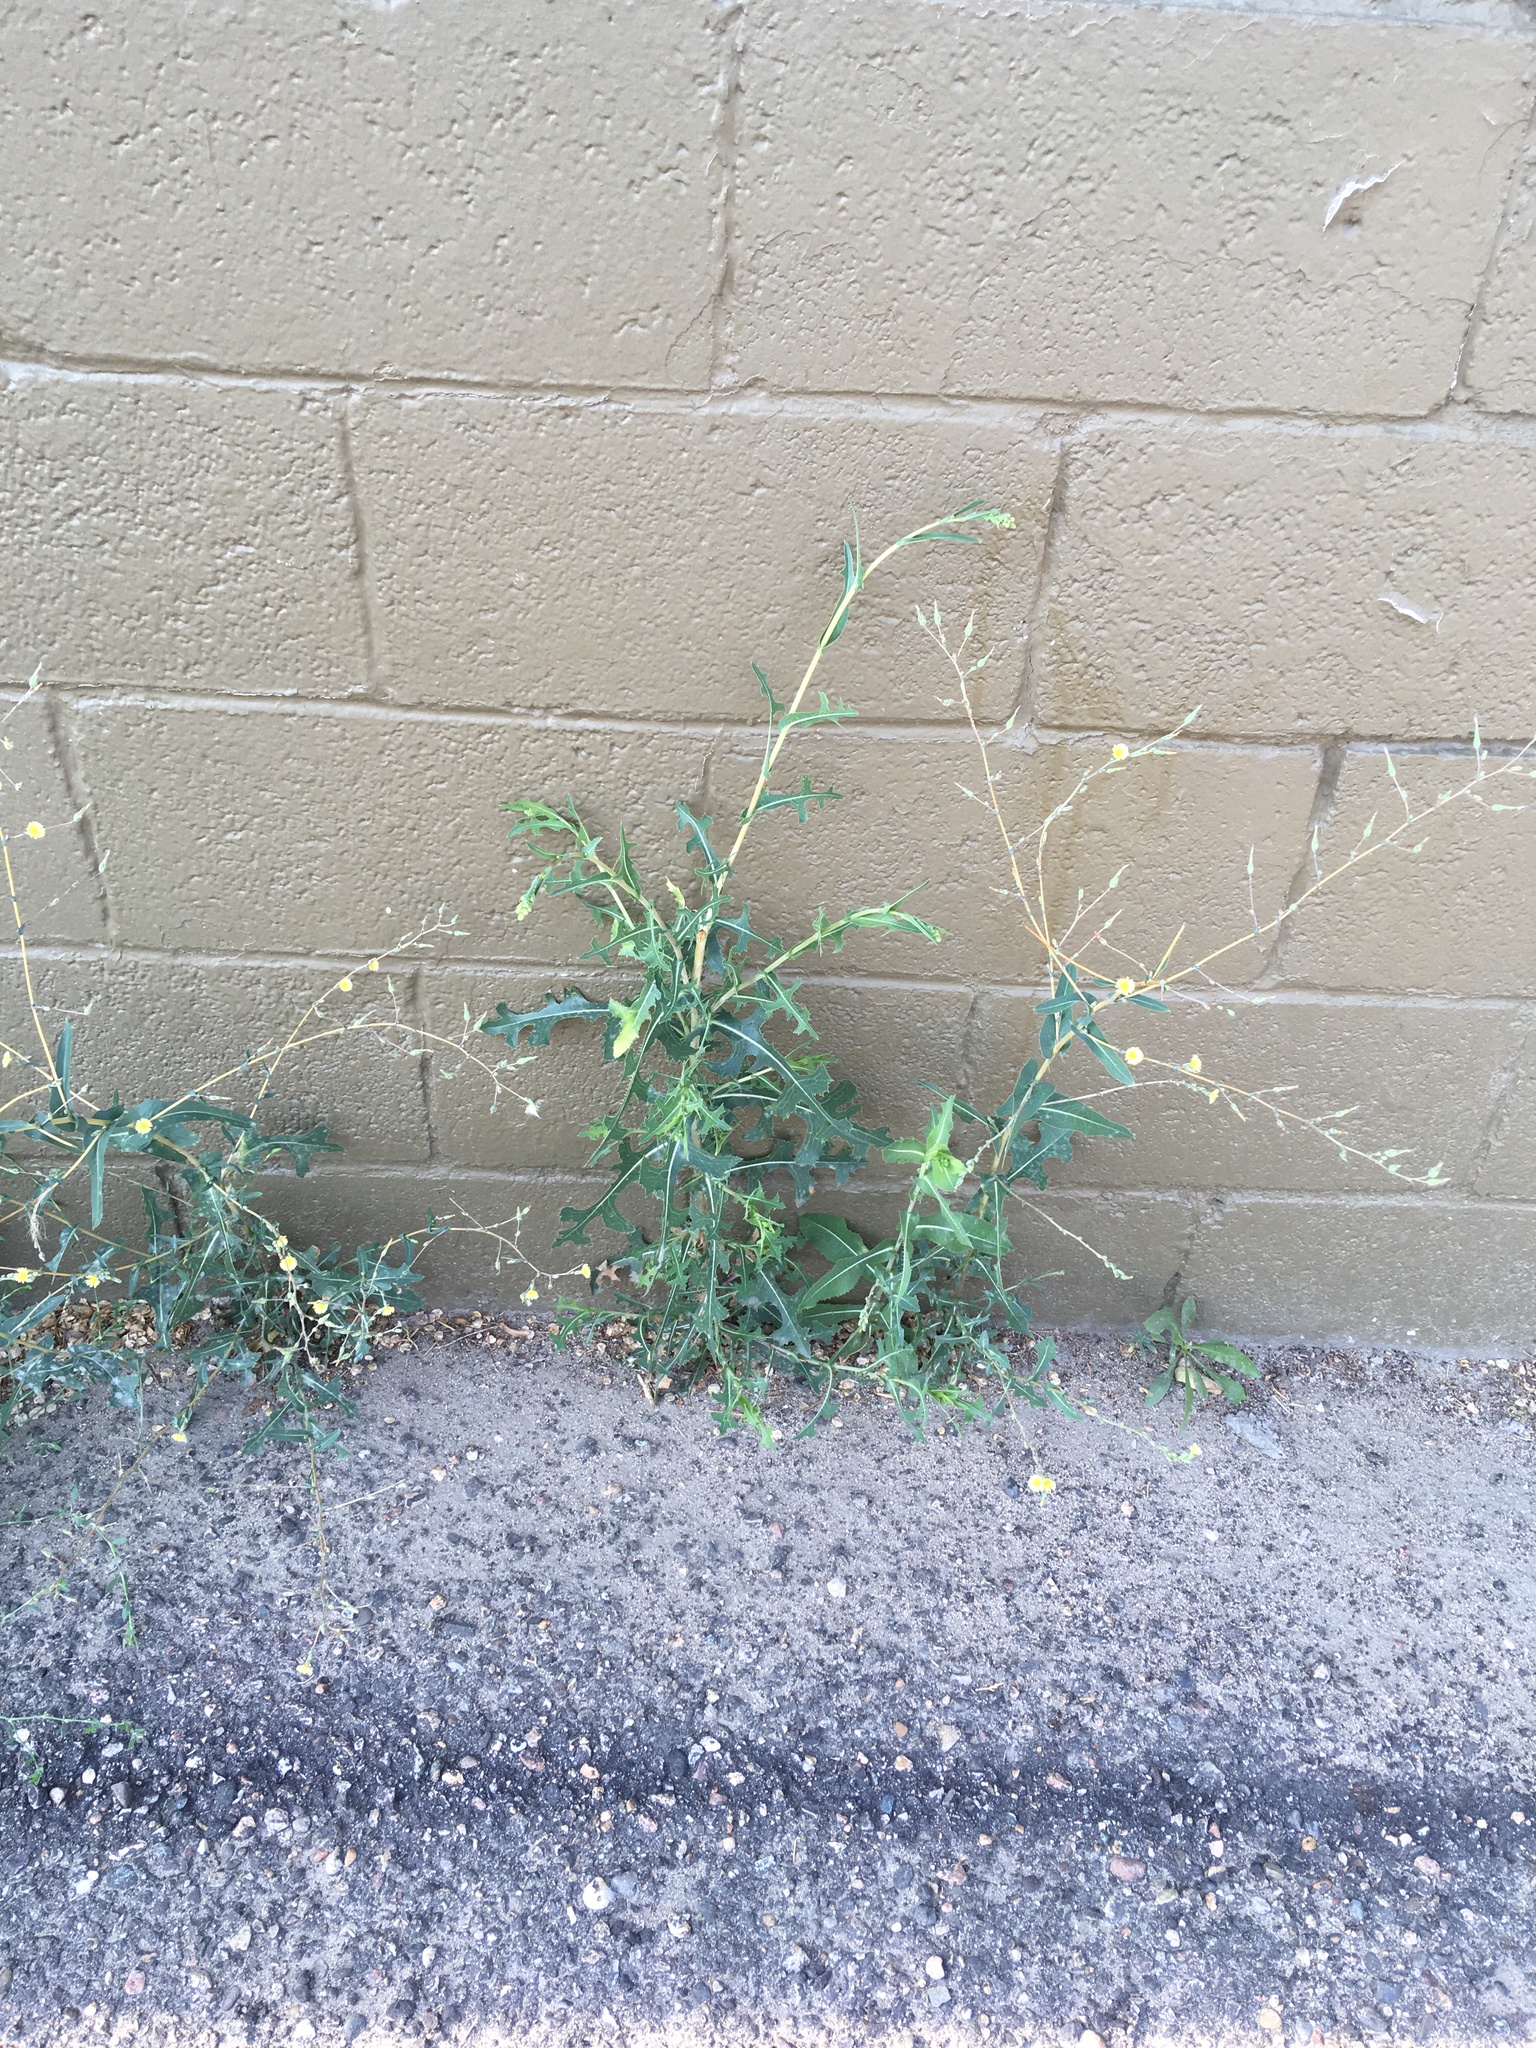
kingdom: Plantae
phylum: Tracheophyta
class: Magnoliopsida
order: Asterales
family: Asteraceae
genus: Lactuca
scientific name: Lactuca serriola
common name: Prickly lettuce
